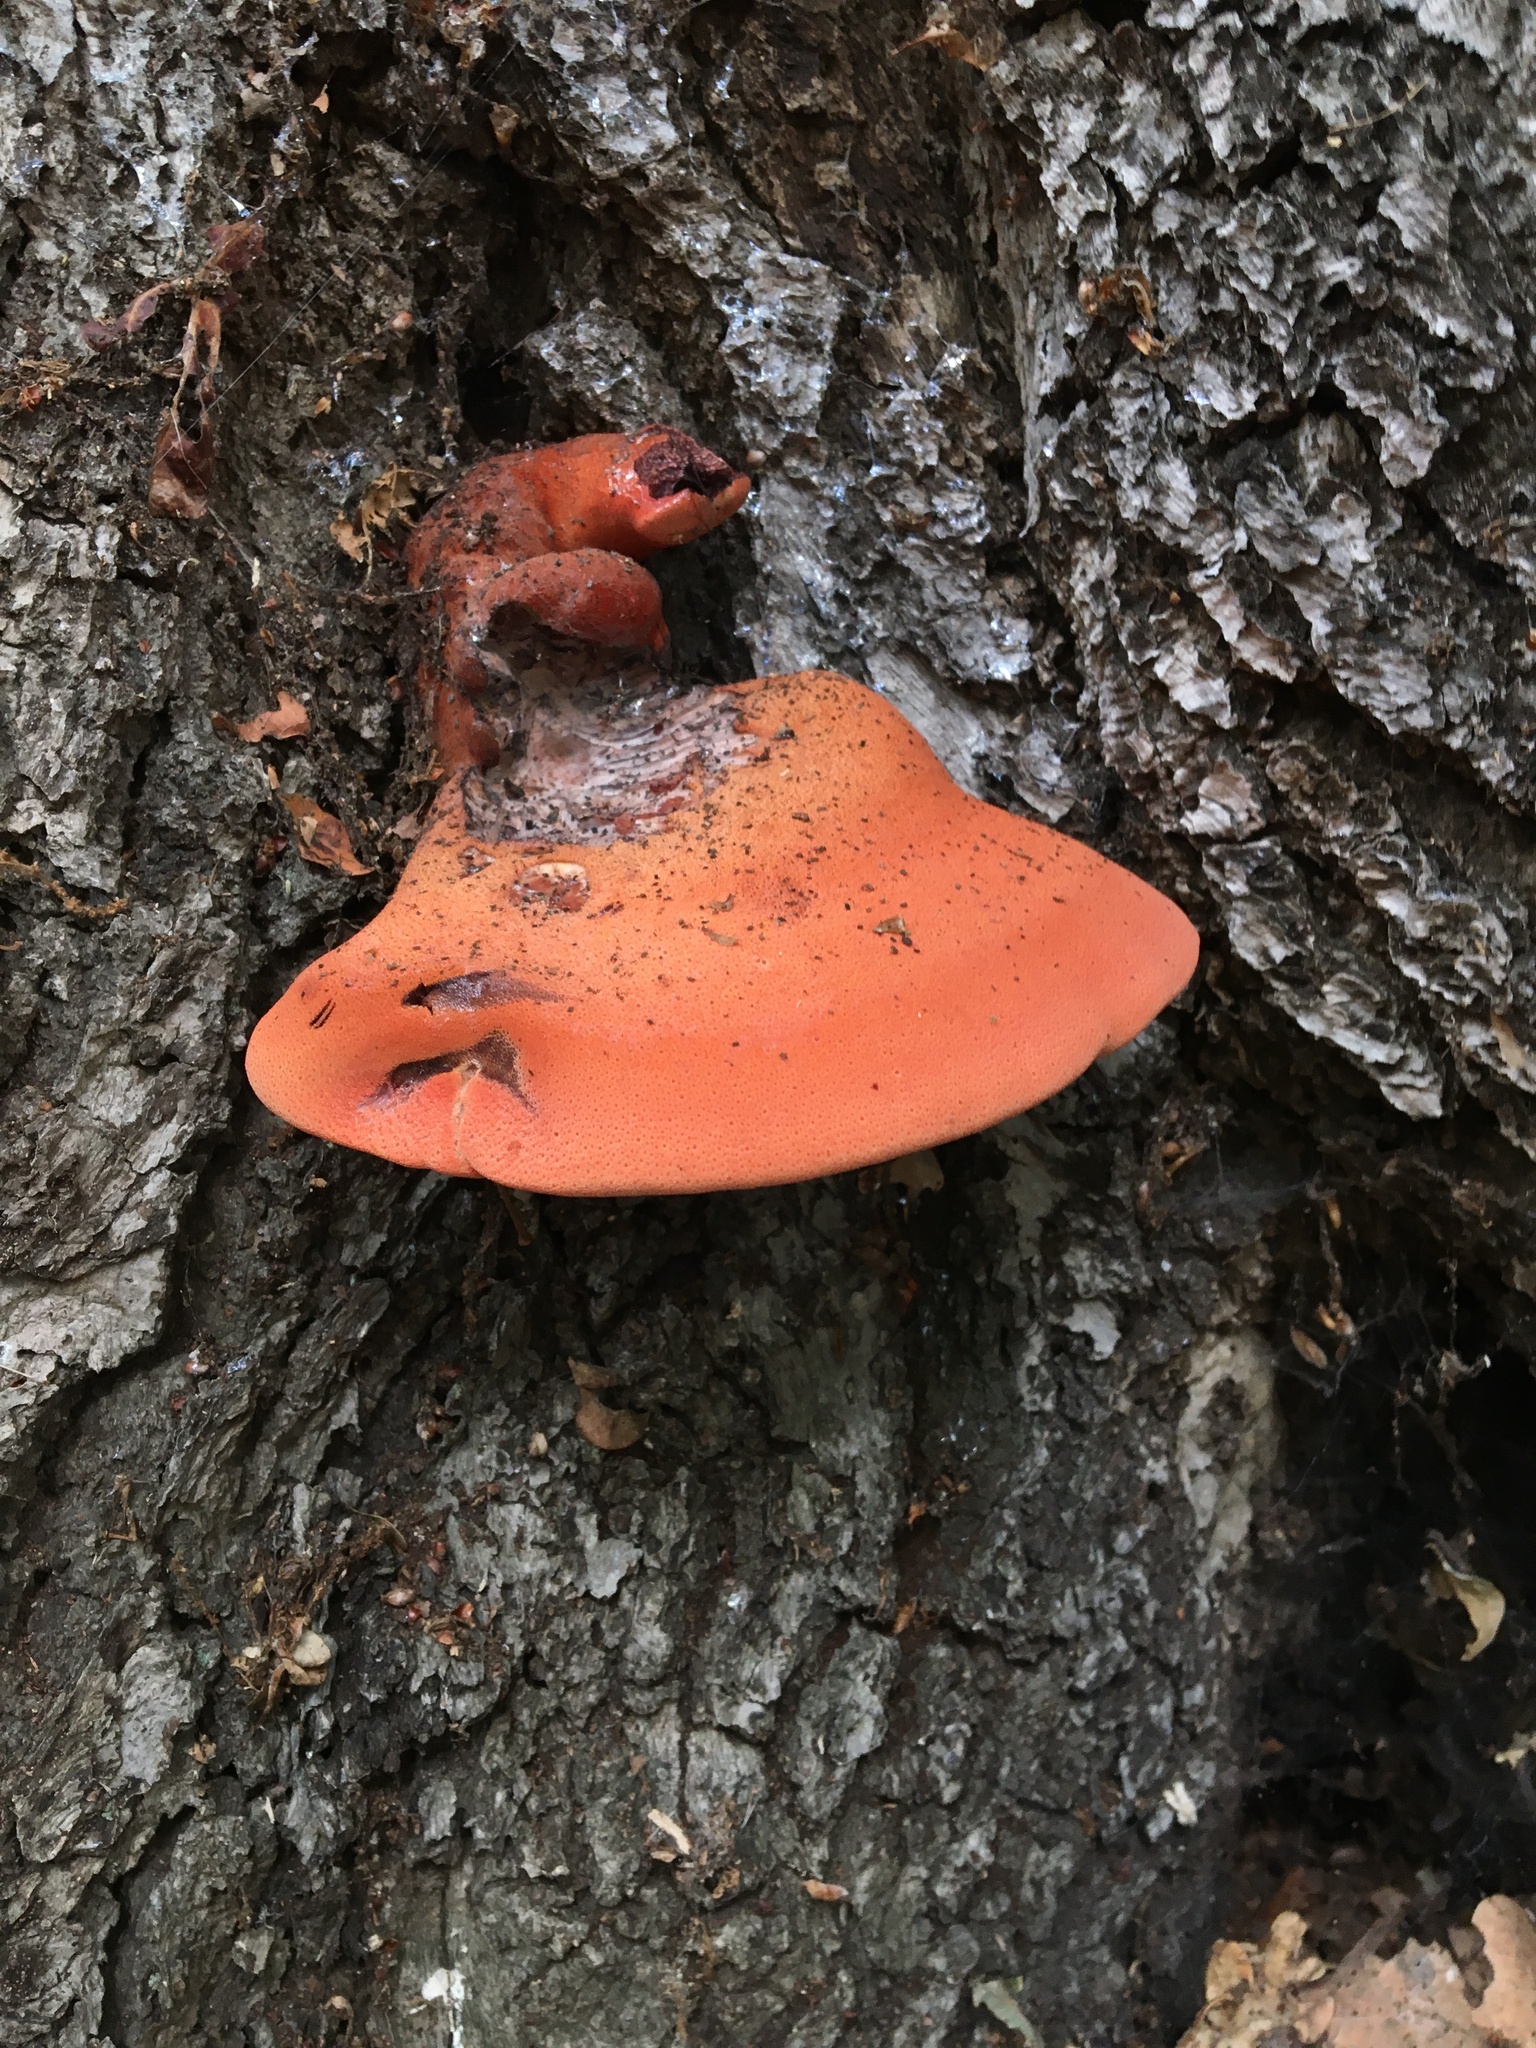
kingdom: Fungi
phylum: Basidiomycota
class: Agaricomycetes
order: Agaricales
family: Fistulinaceae
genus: Fistulina
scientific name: Fistulina hepatica
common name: Beef-steak fungus
